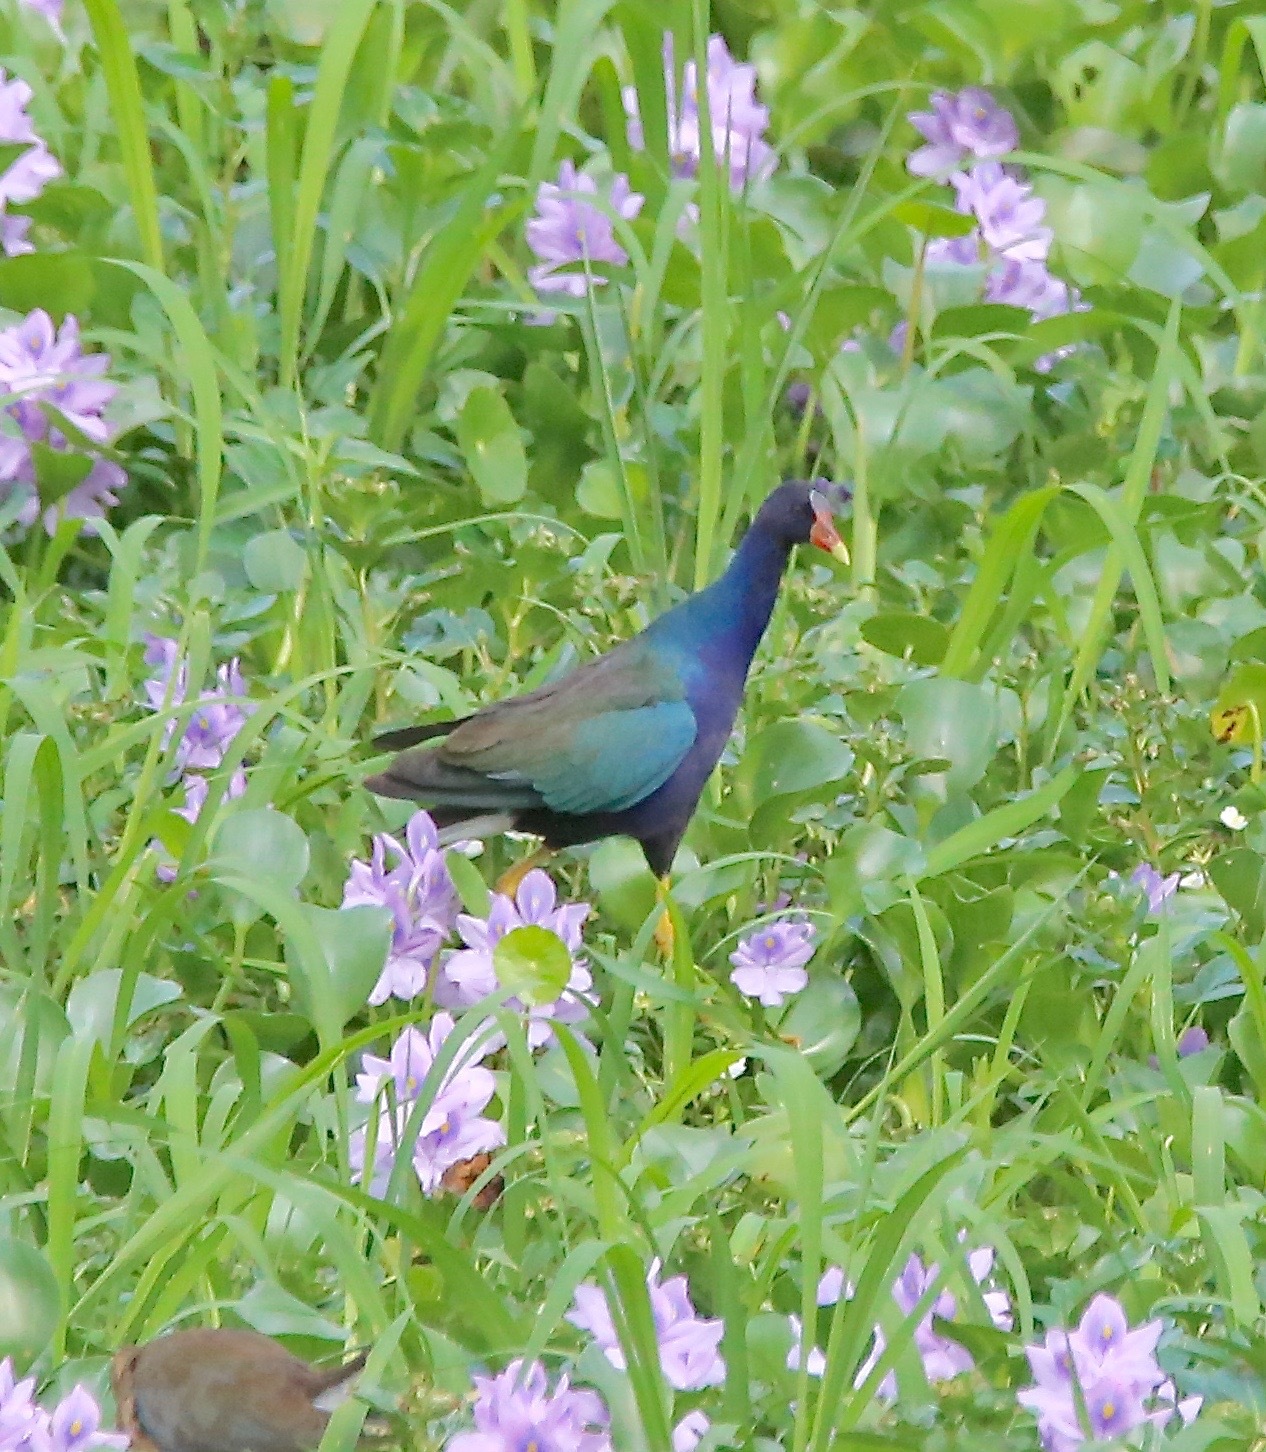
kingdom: Animalia
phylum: Chordata
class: Aves
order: Gruiformes
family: Rallidae
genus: Porphyrio
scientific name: Porphyrio martinica
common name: Purple gallinule
